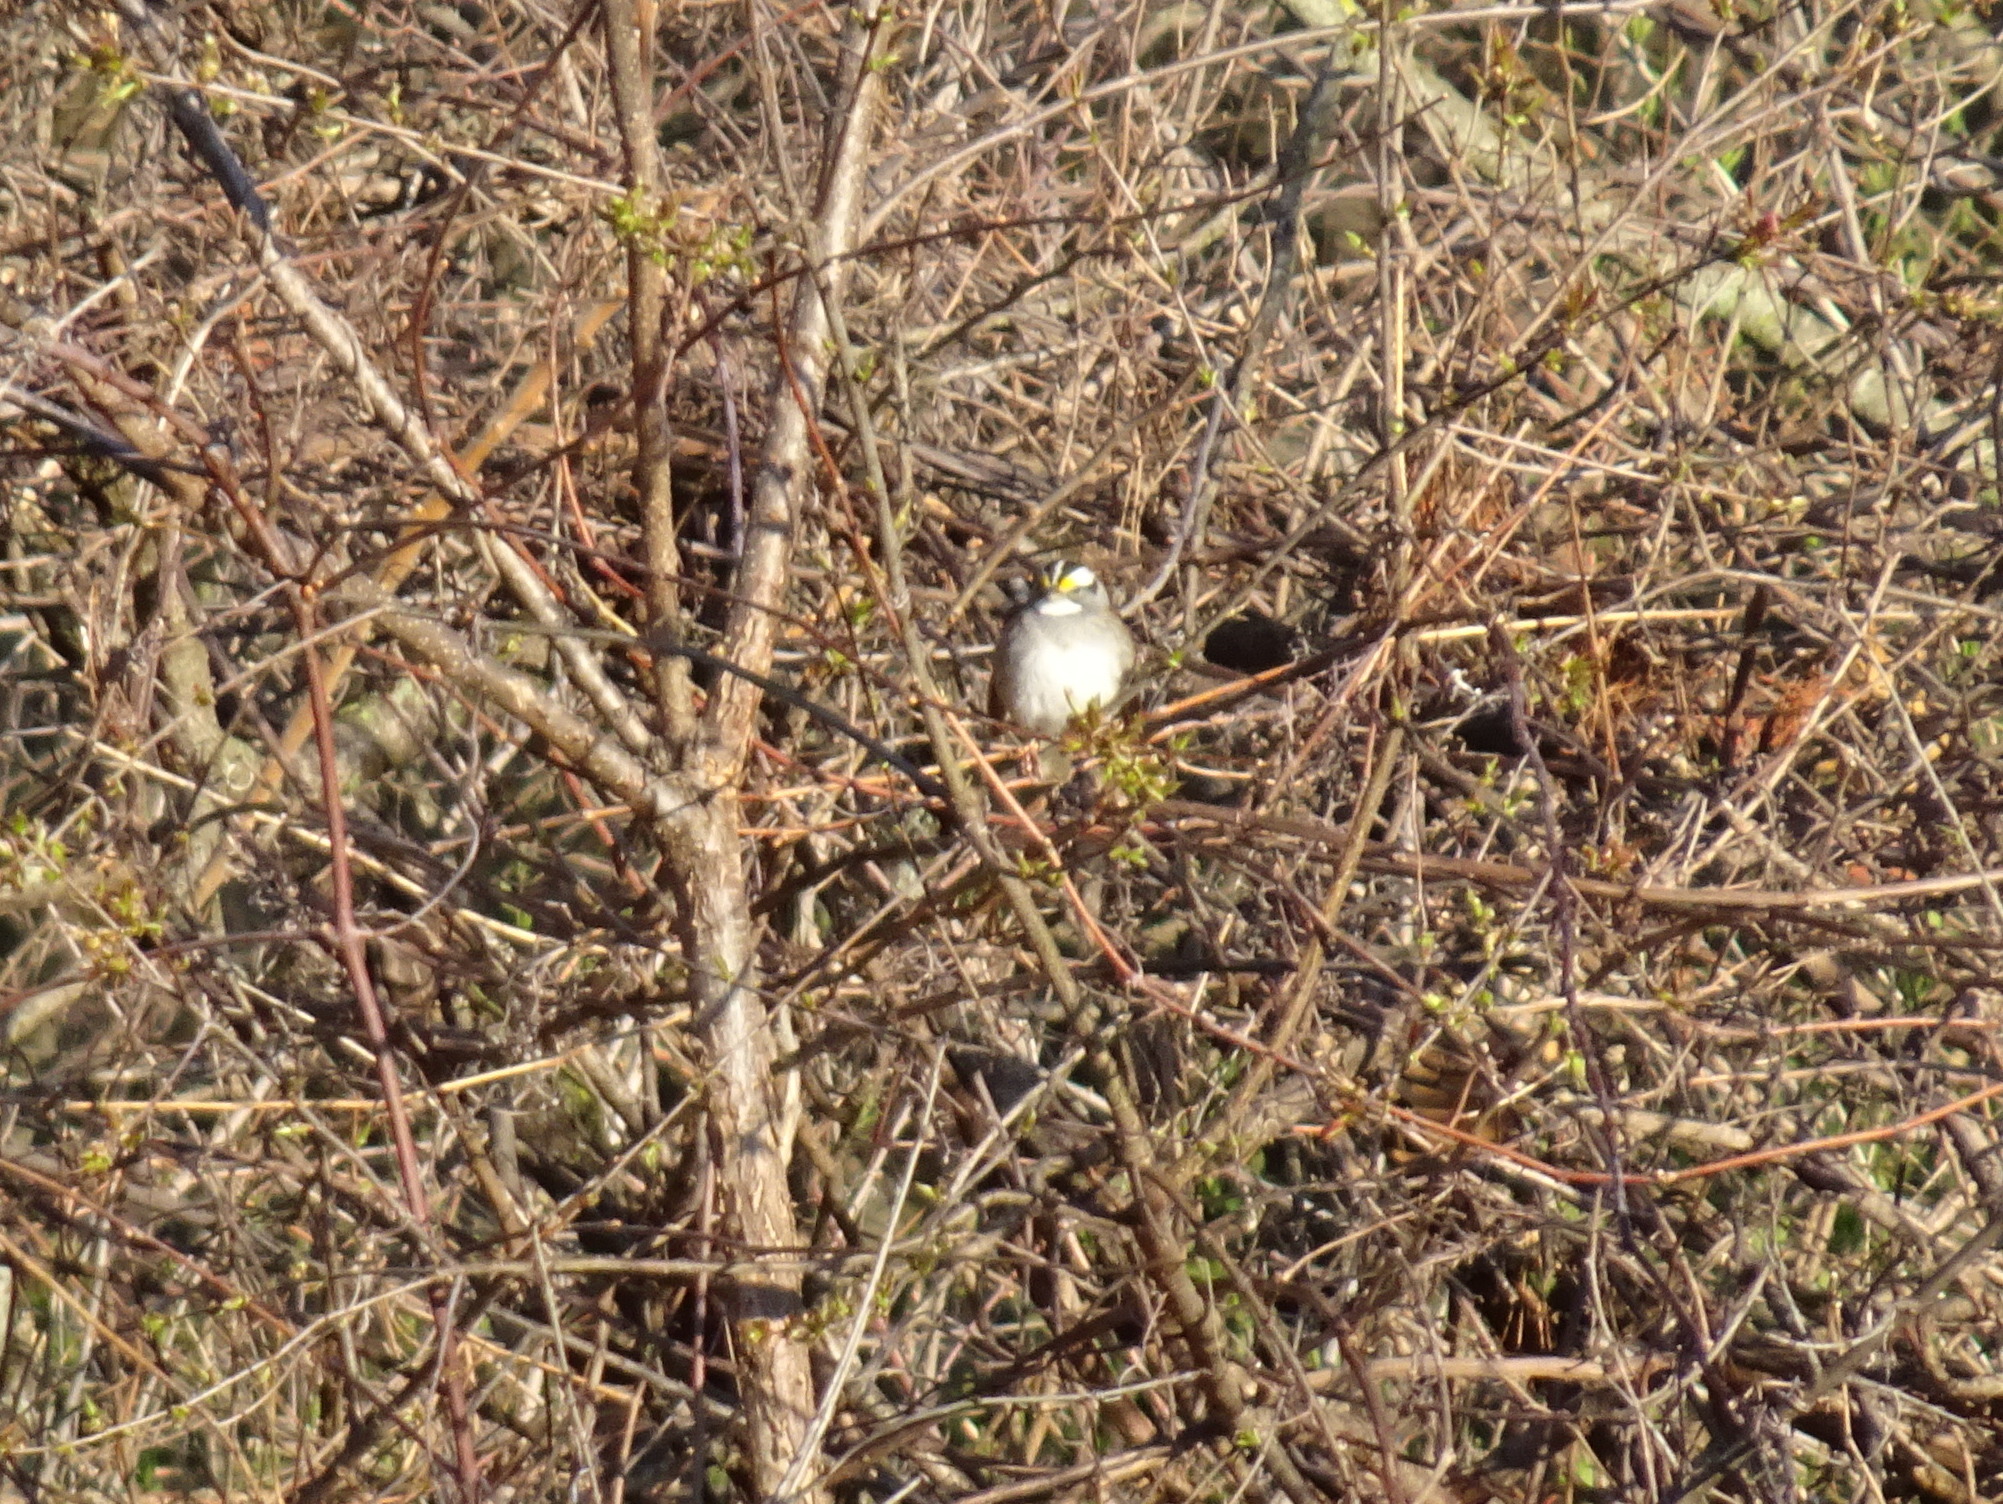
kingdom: Animalia
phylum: Chordata
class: Aves
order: Passeriformes
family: Passerellidae
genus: Zonotrichia
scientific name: Zonotrichia albicollis
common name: White-throated sparrow
